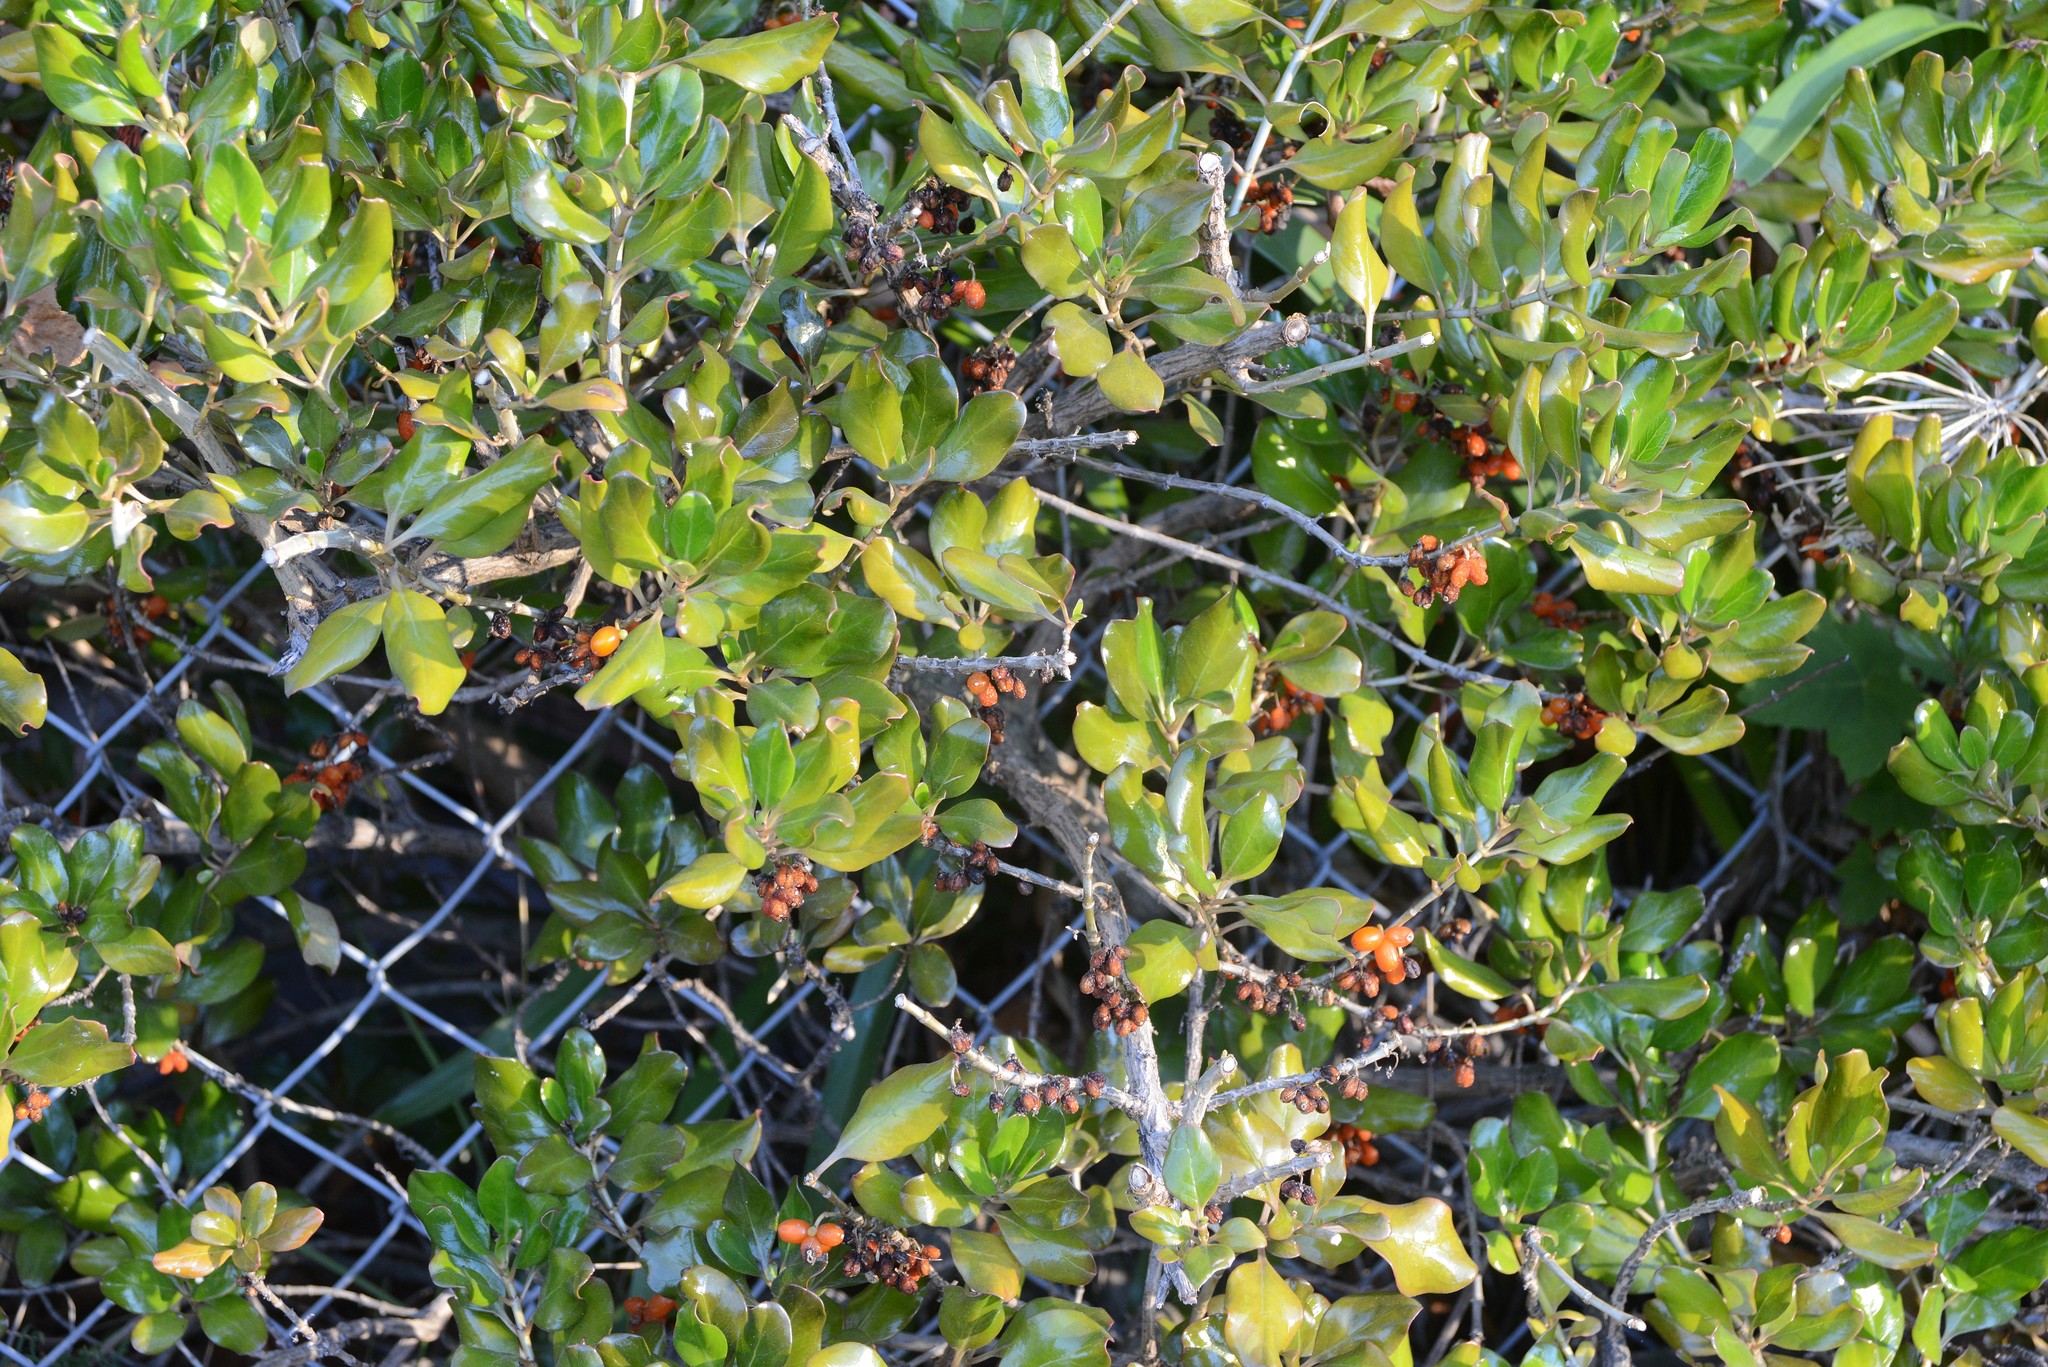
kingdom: Plantae
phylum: Tracheophyta
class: Magnoliopsida
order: Gentianales
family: Rubiaceae
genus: Coprosma
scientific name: Coprosma repens
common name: Tree bedstraw
